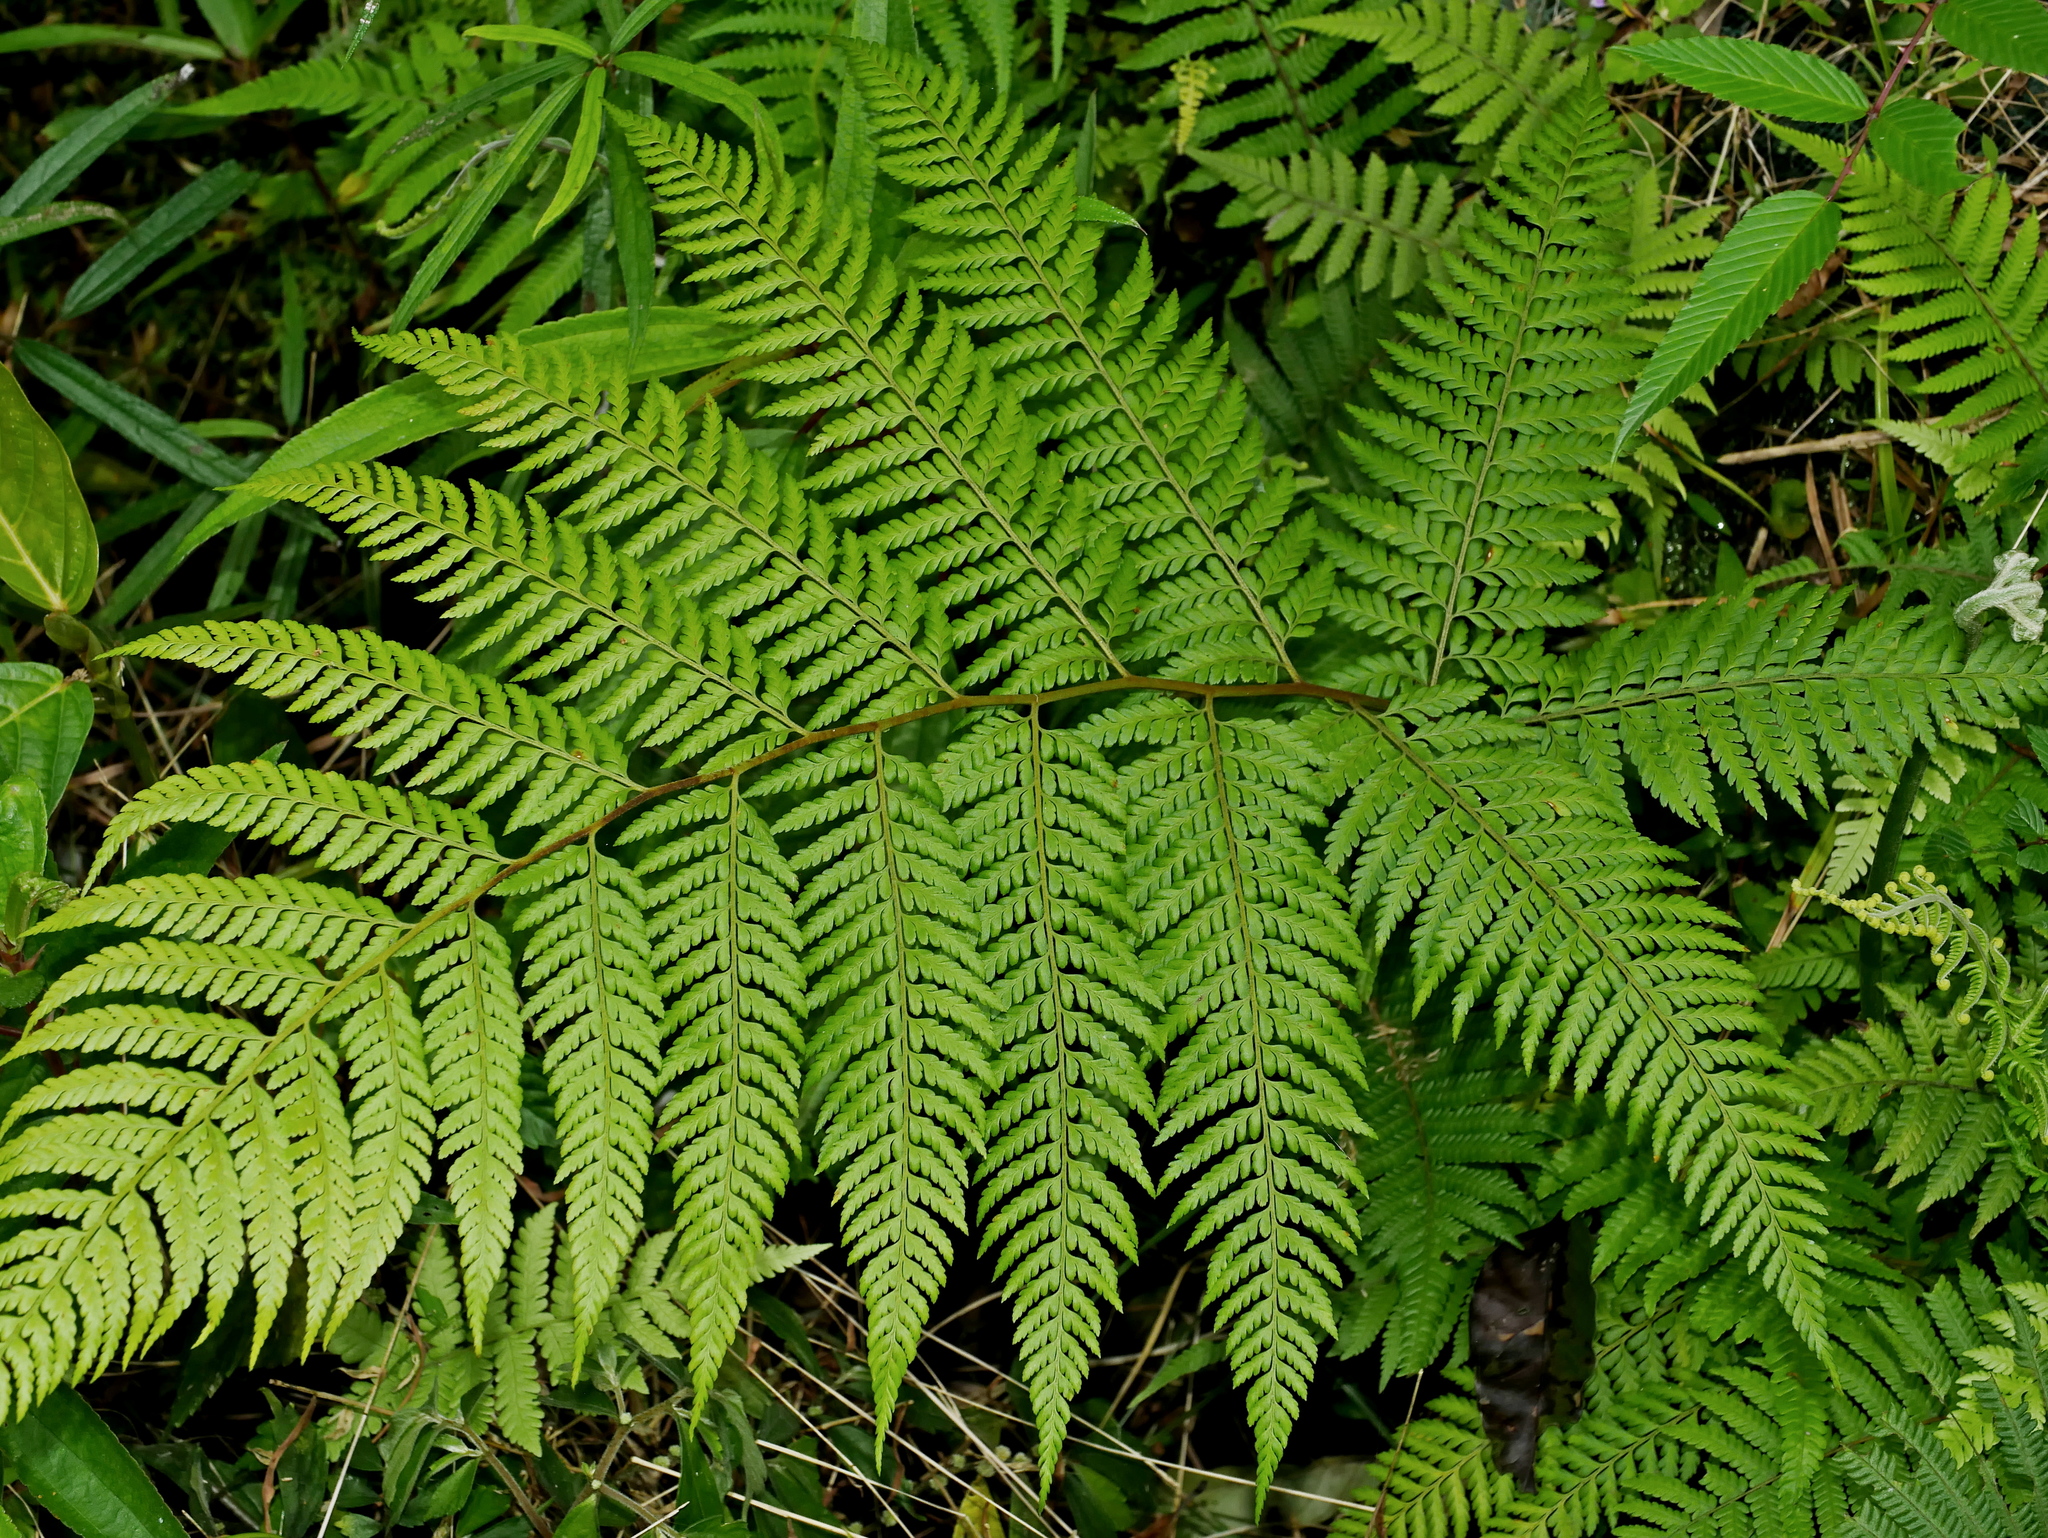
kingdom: Plantae
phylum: Tracheophyta
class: Polypodiopsida
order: Polypodiales
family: Dennstaedtiaceae
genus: Microlepia
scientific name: Microlepia smithii
